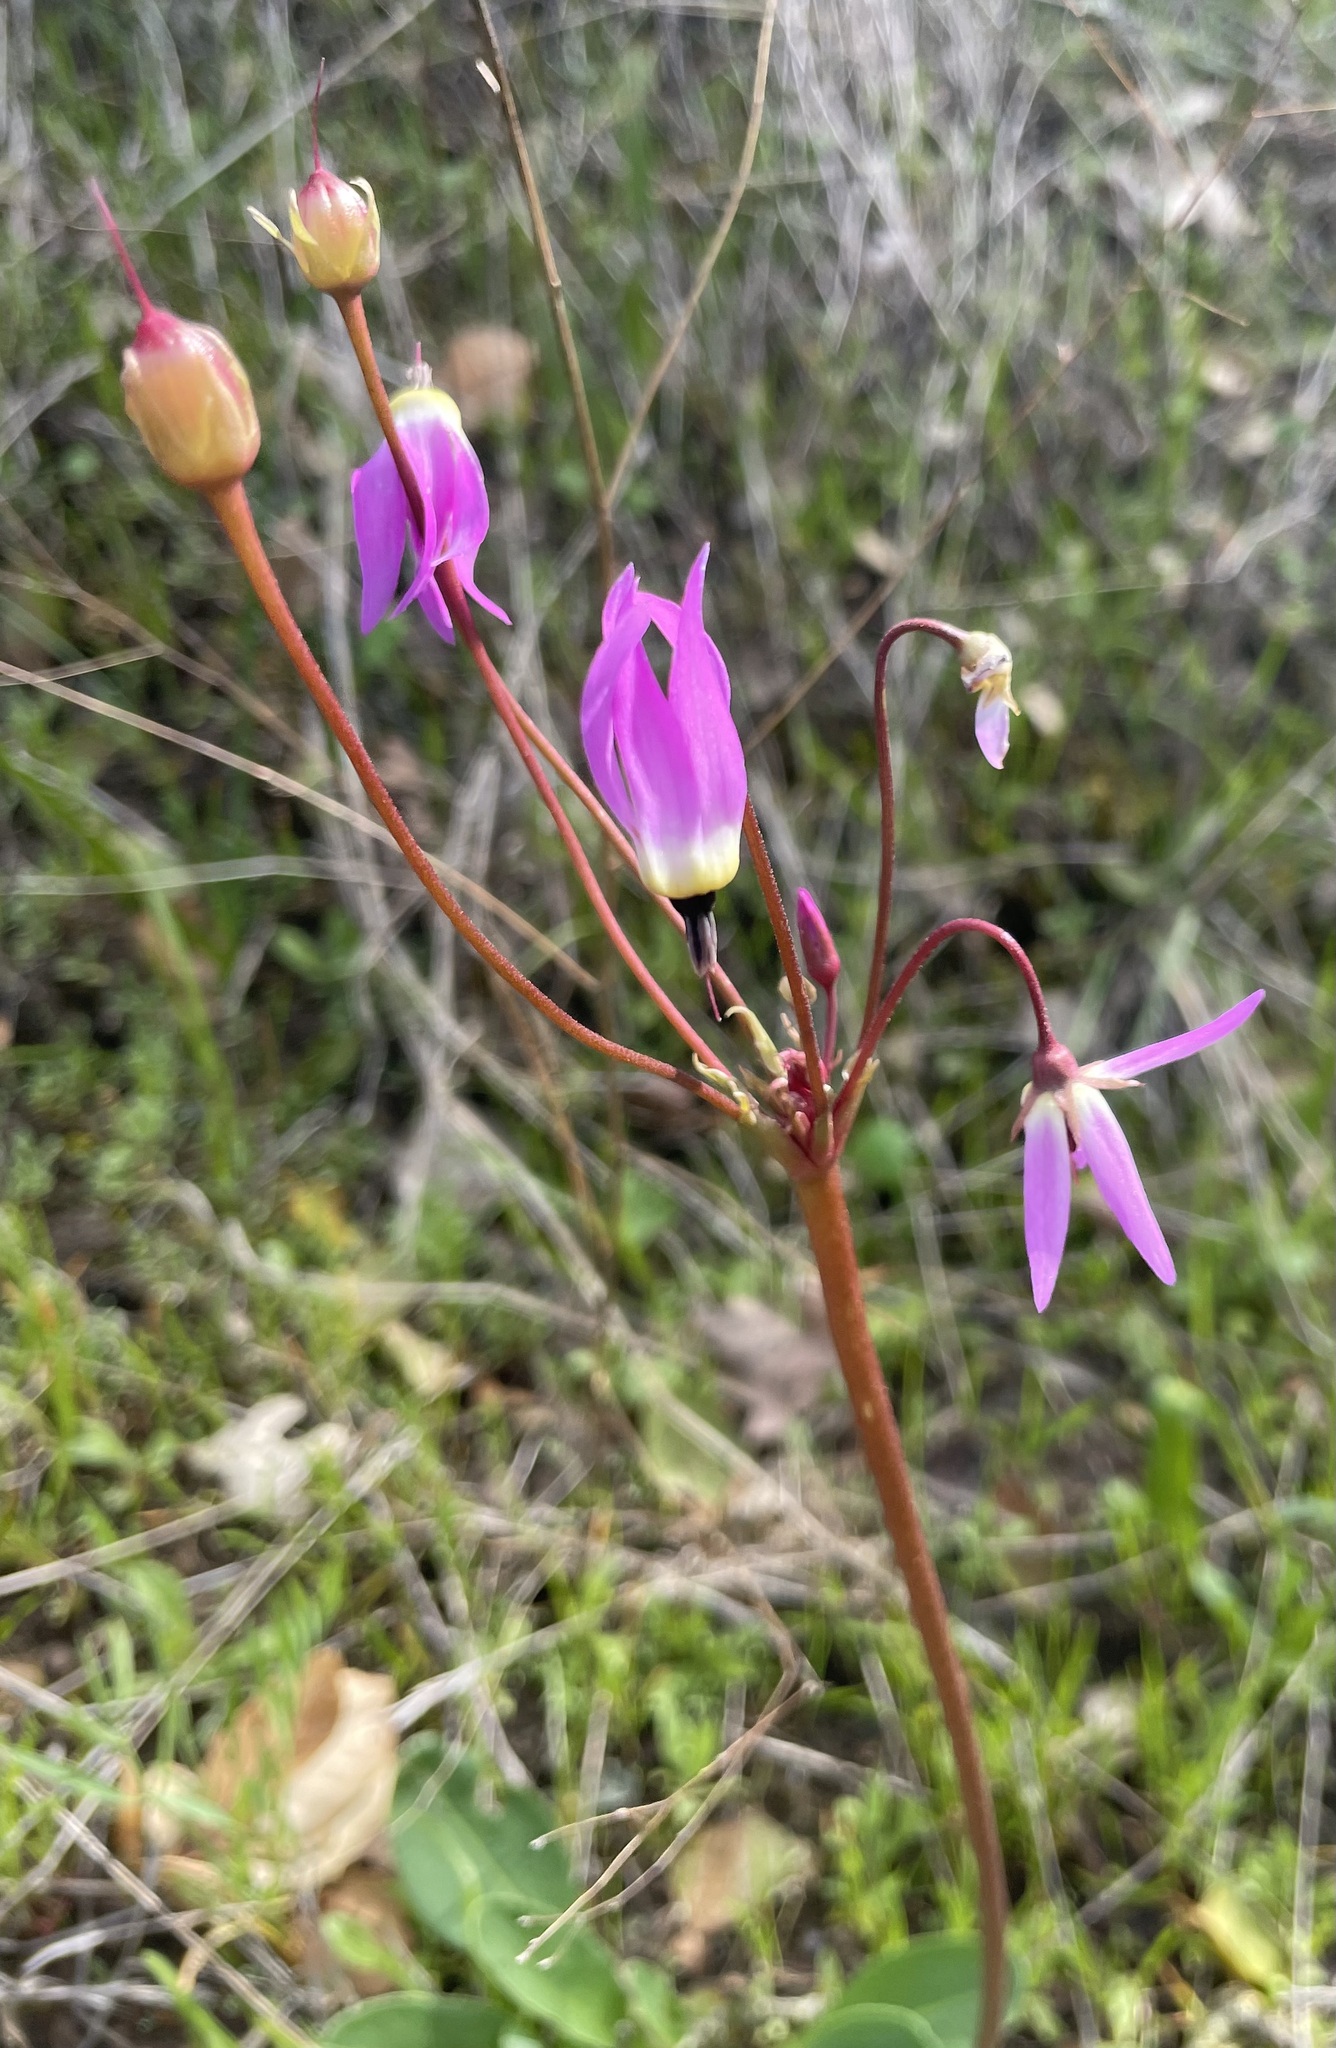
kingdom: Plantae
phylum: Tracheophyta
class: Magnoliopsida
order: Ericales
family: Primulaceae
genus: Dodecatheon
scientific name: Dodecatheon hendersonii
